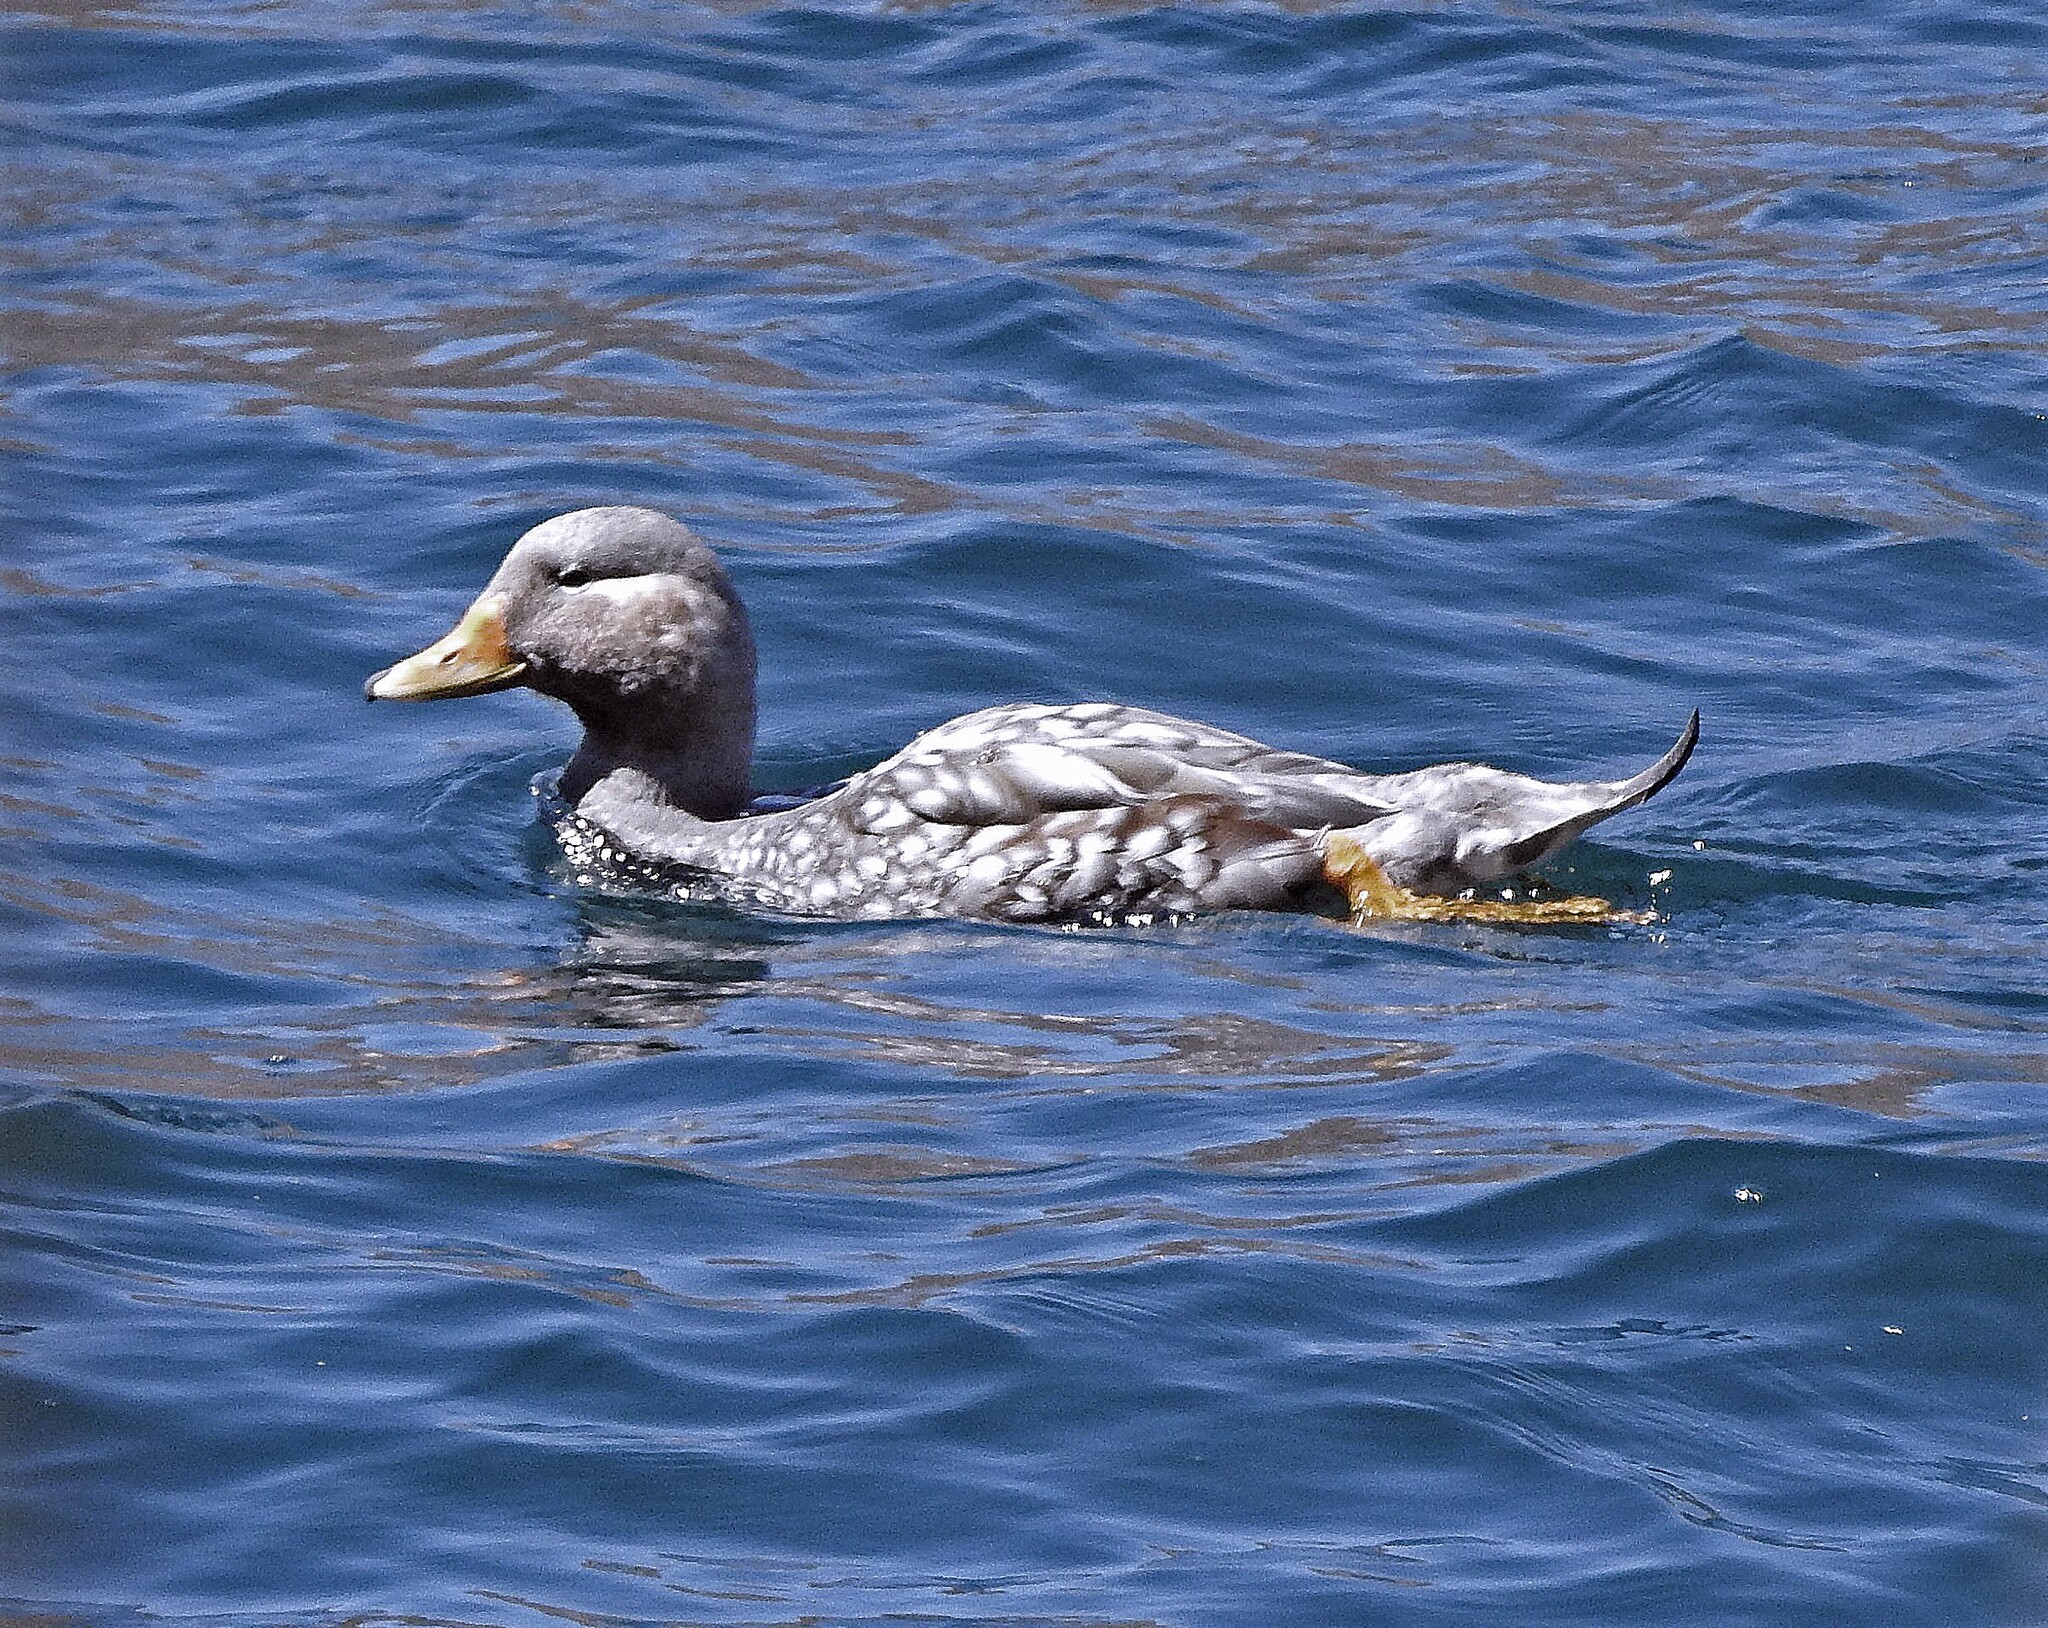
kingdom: Animalia
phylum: Chordata
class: Aves
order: Anseriformes
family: Anatidae
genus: Tachyeres
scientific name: Tachyeres patachonicus
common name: Flying steamer duck
